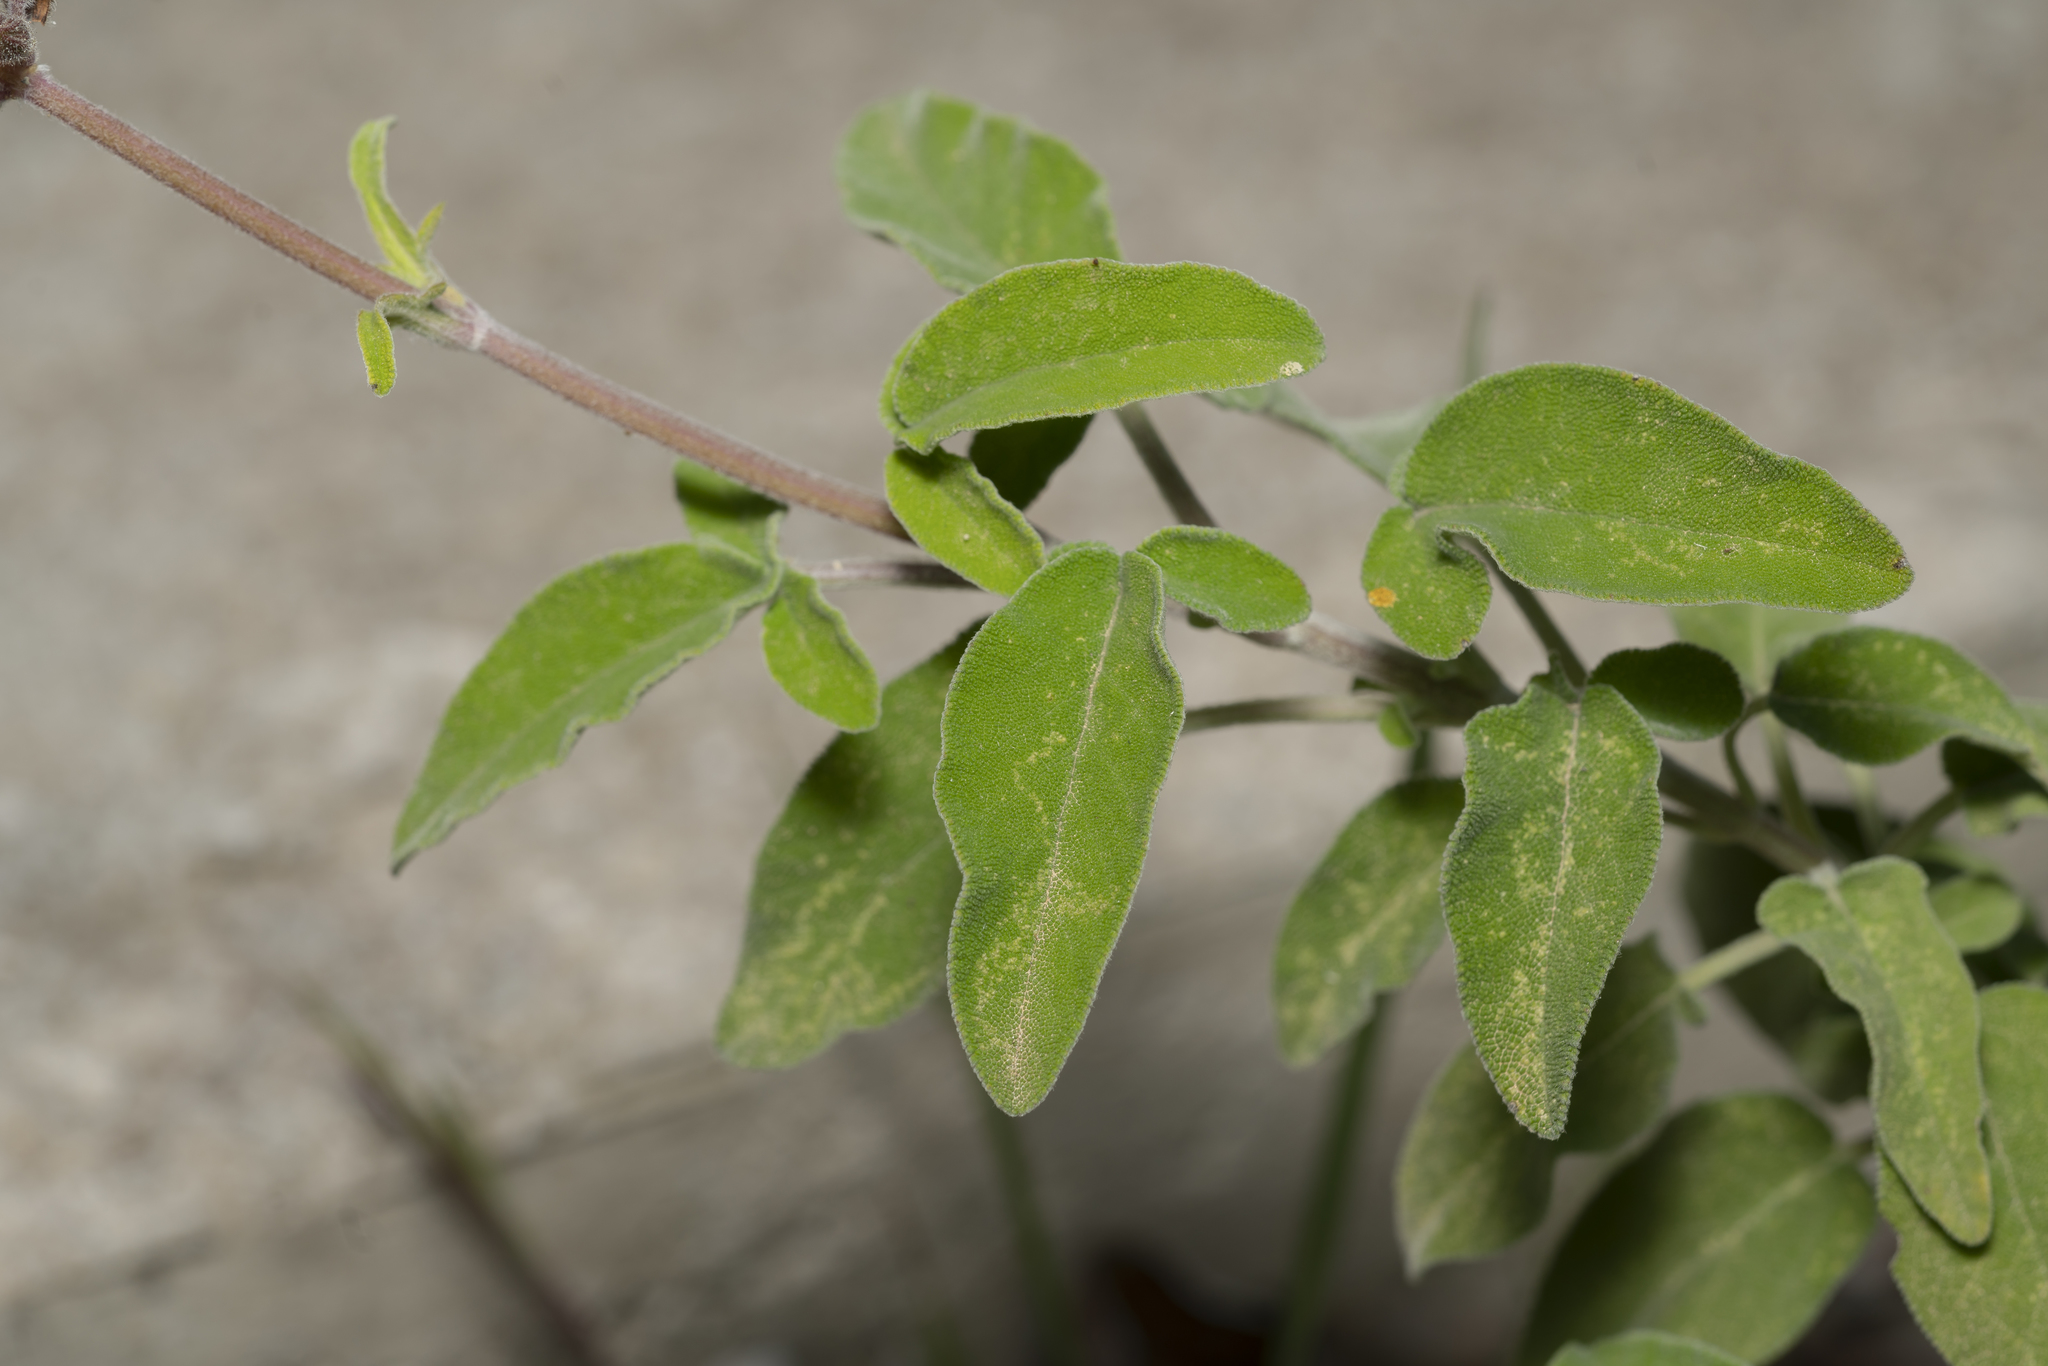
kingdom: Plantae
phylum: Tracheophyta
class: Magnoliopsida
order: Lamiales
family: Lamiaceae
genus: Salvia
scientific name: Salvia fruticosa
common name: Greek sage
